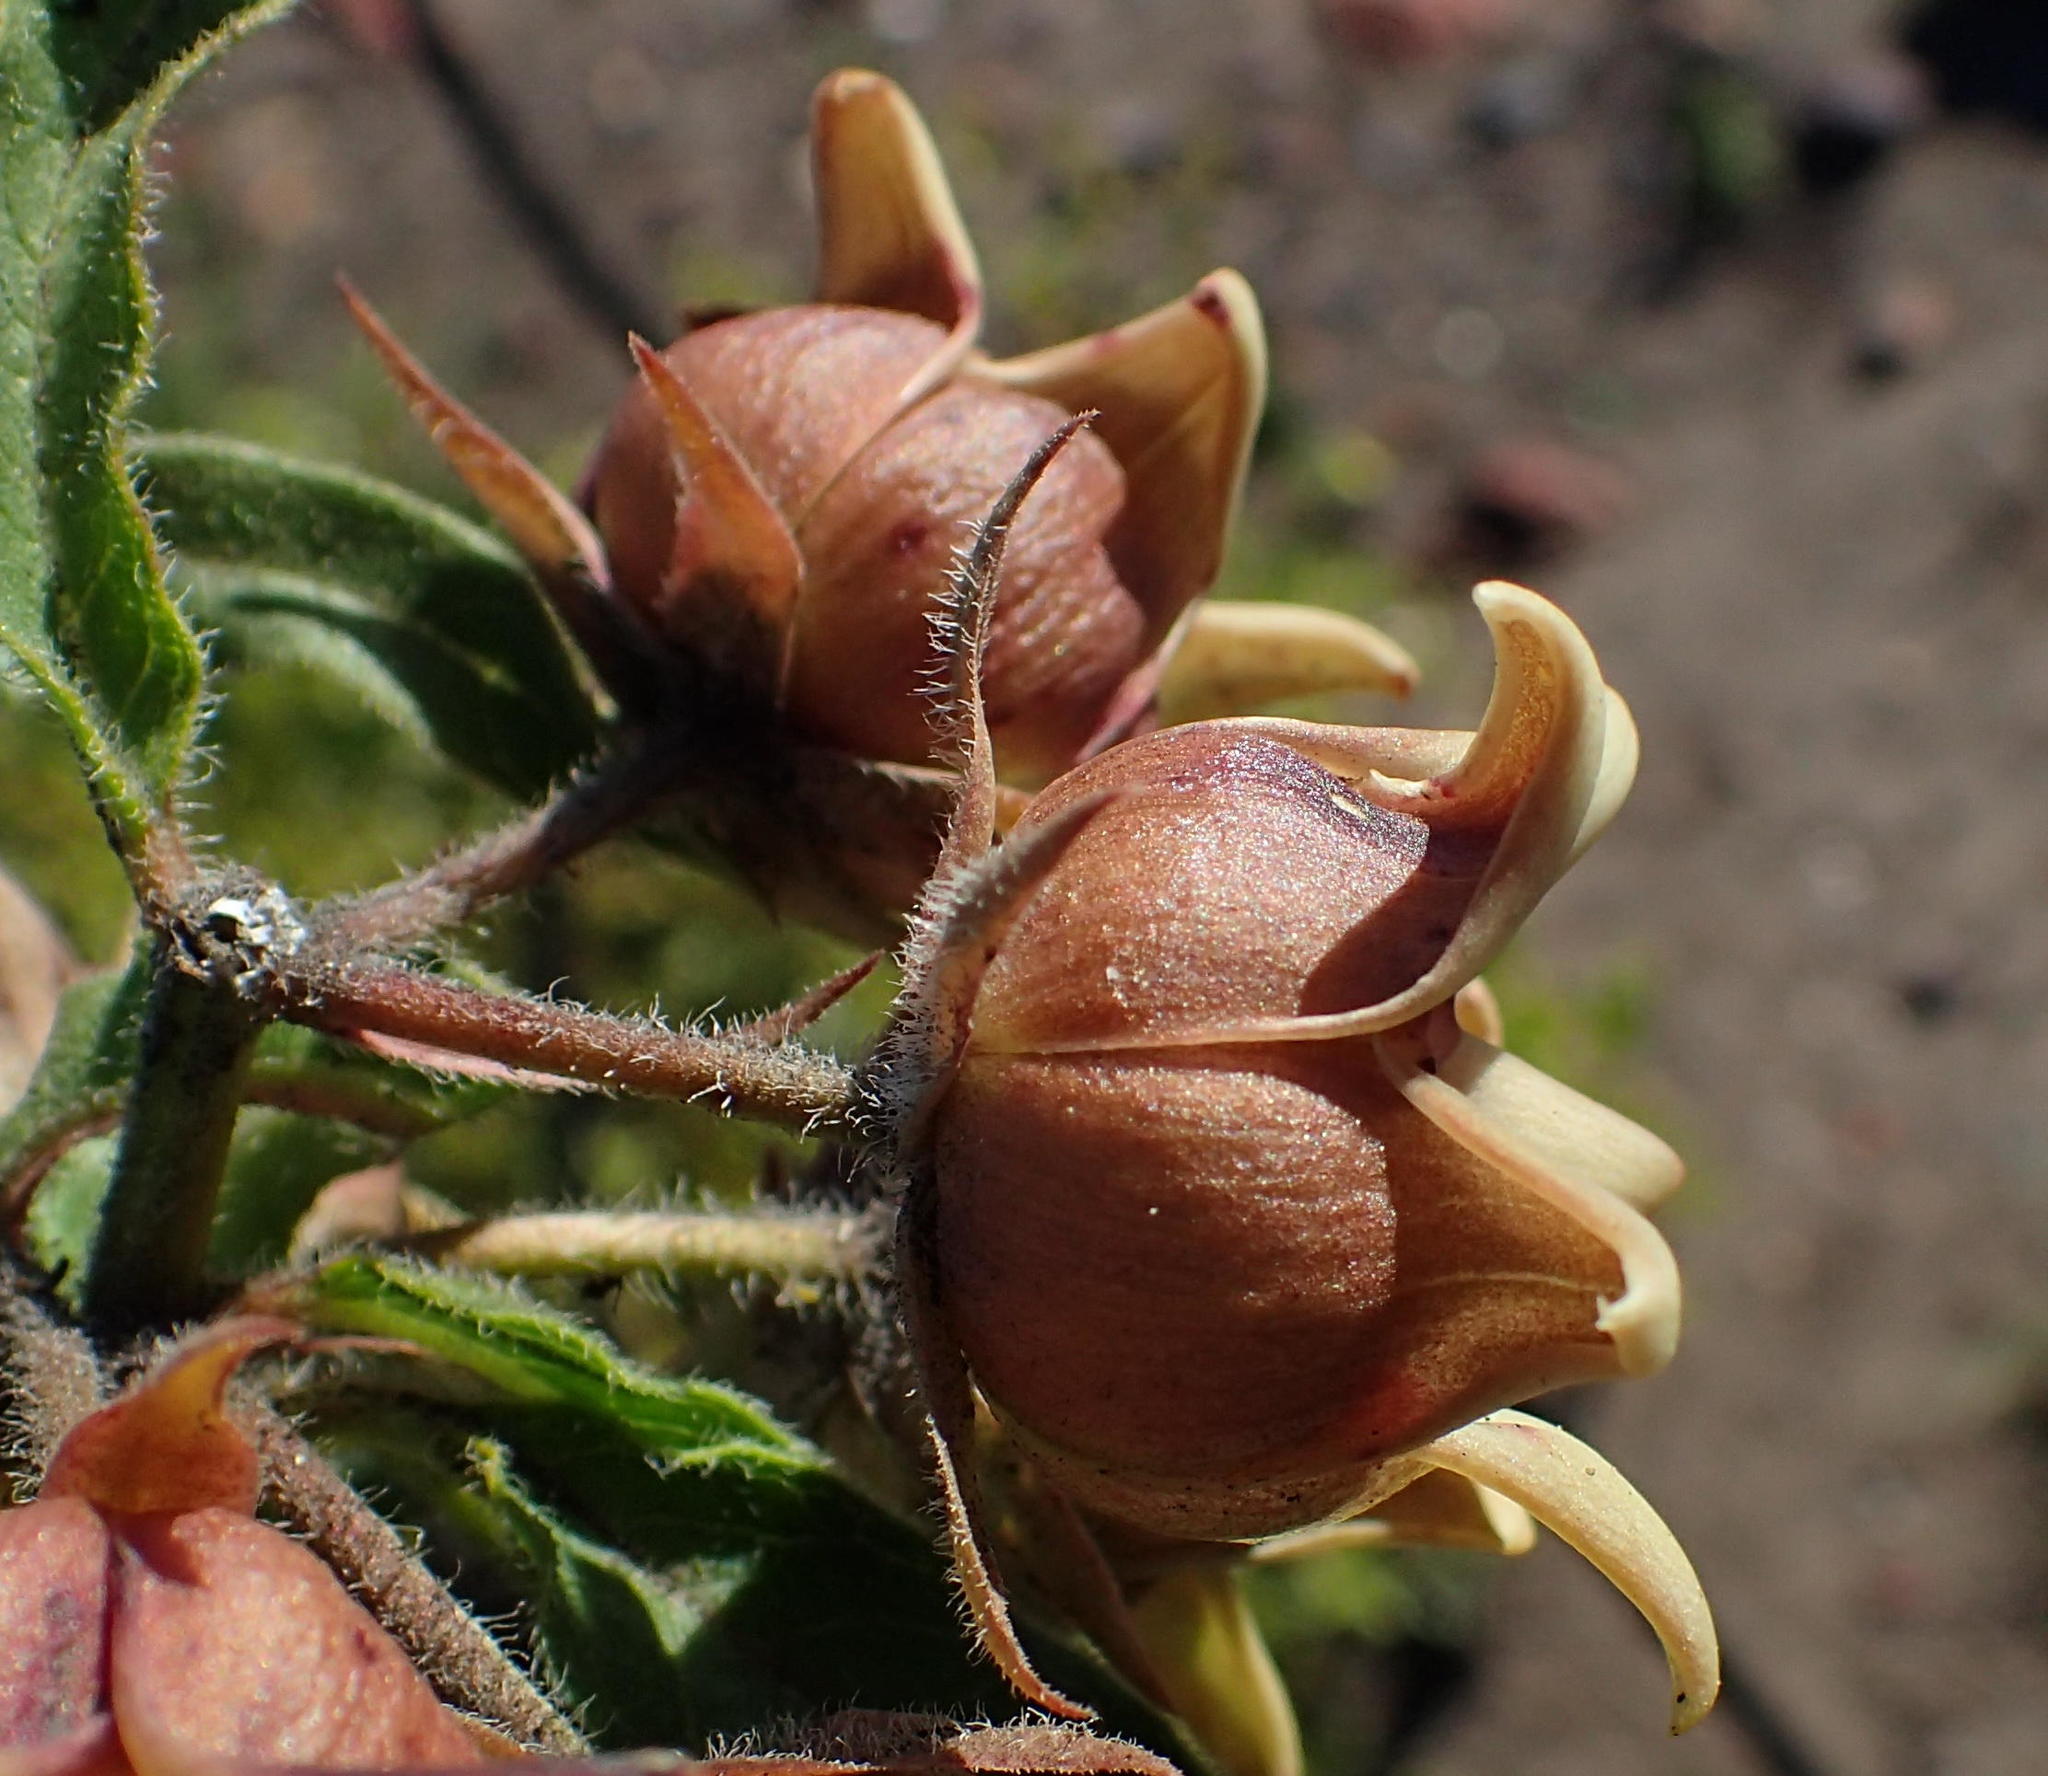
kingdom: Plantae
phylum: Tracheophyta
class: Magnoliopsida
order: Gentianales
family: Apocynaceae
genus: Pachycarpus
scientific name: Pachycarpus dealbatus
